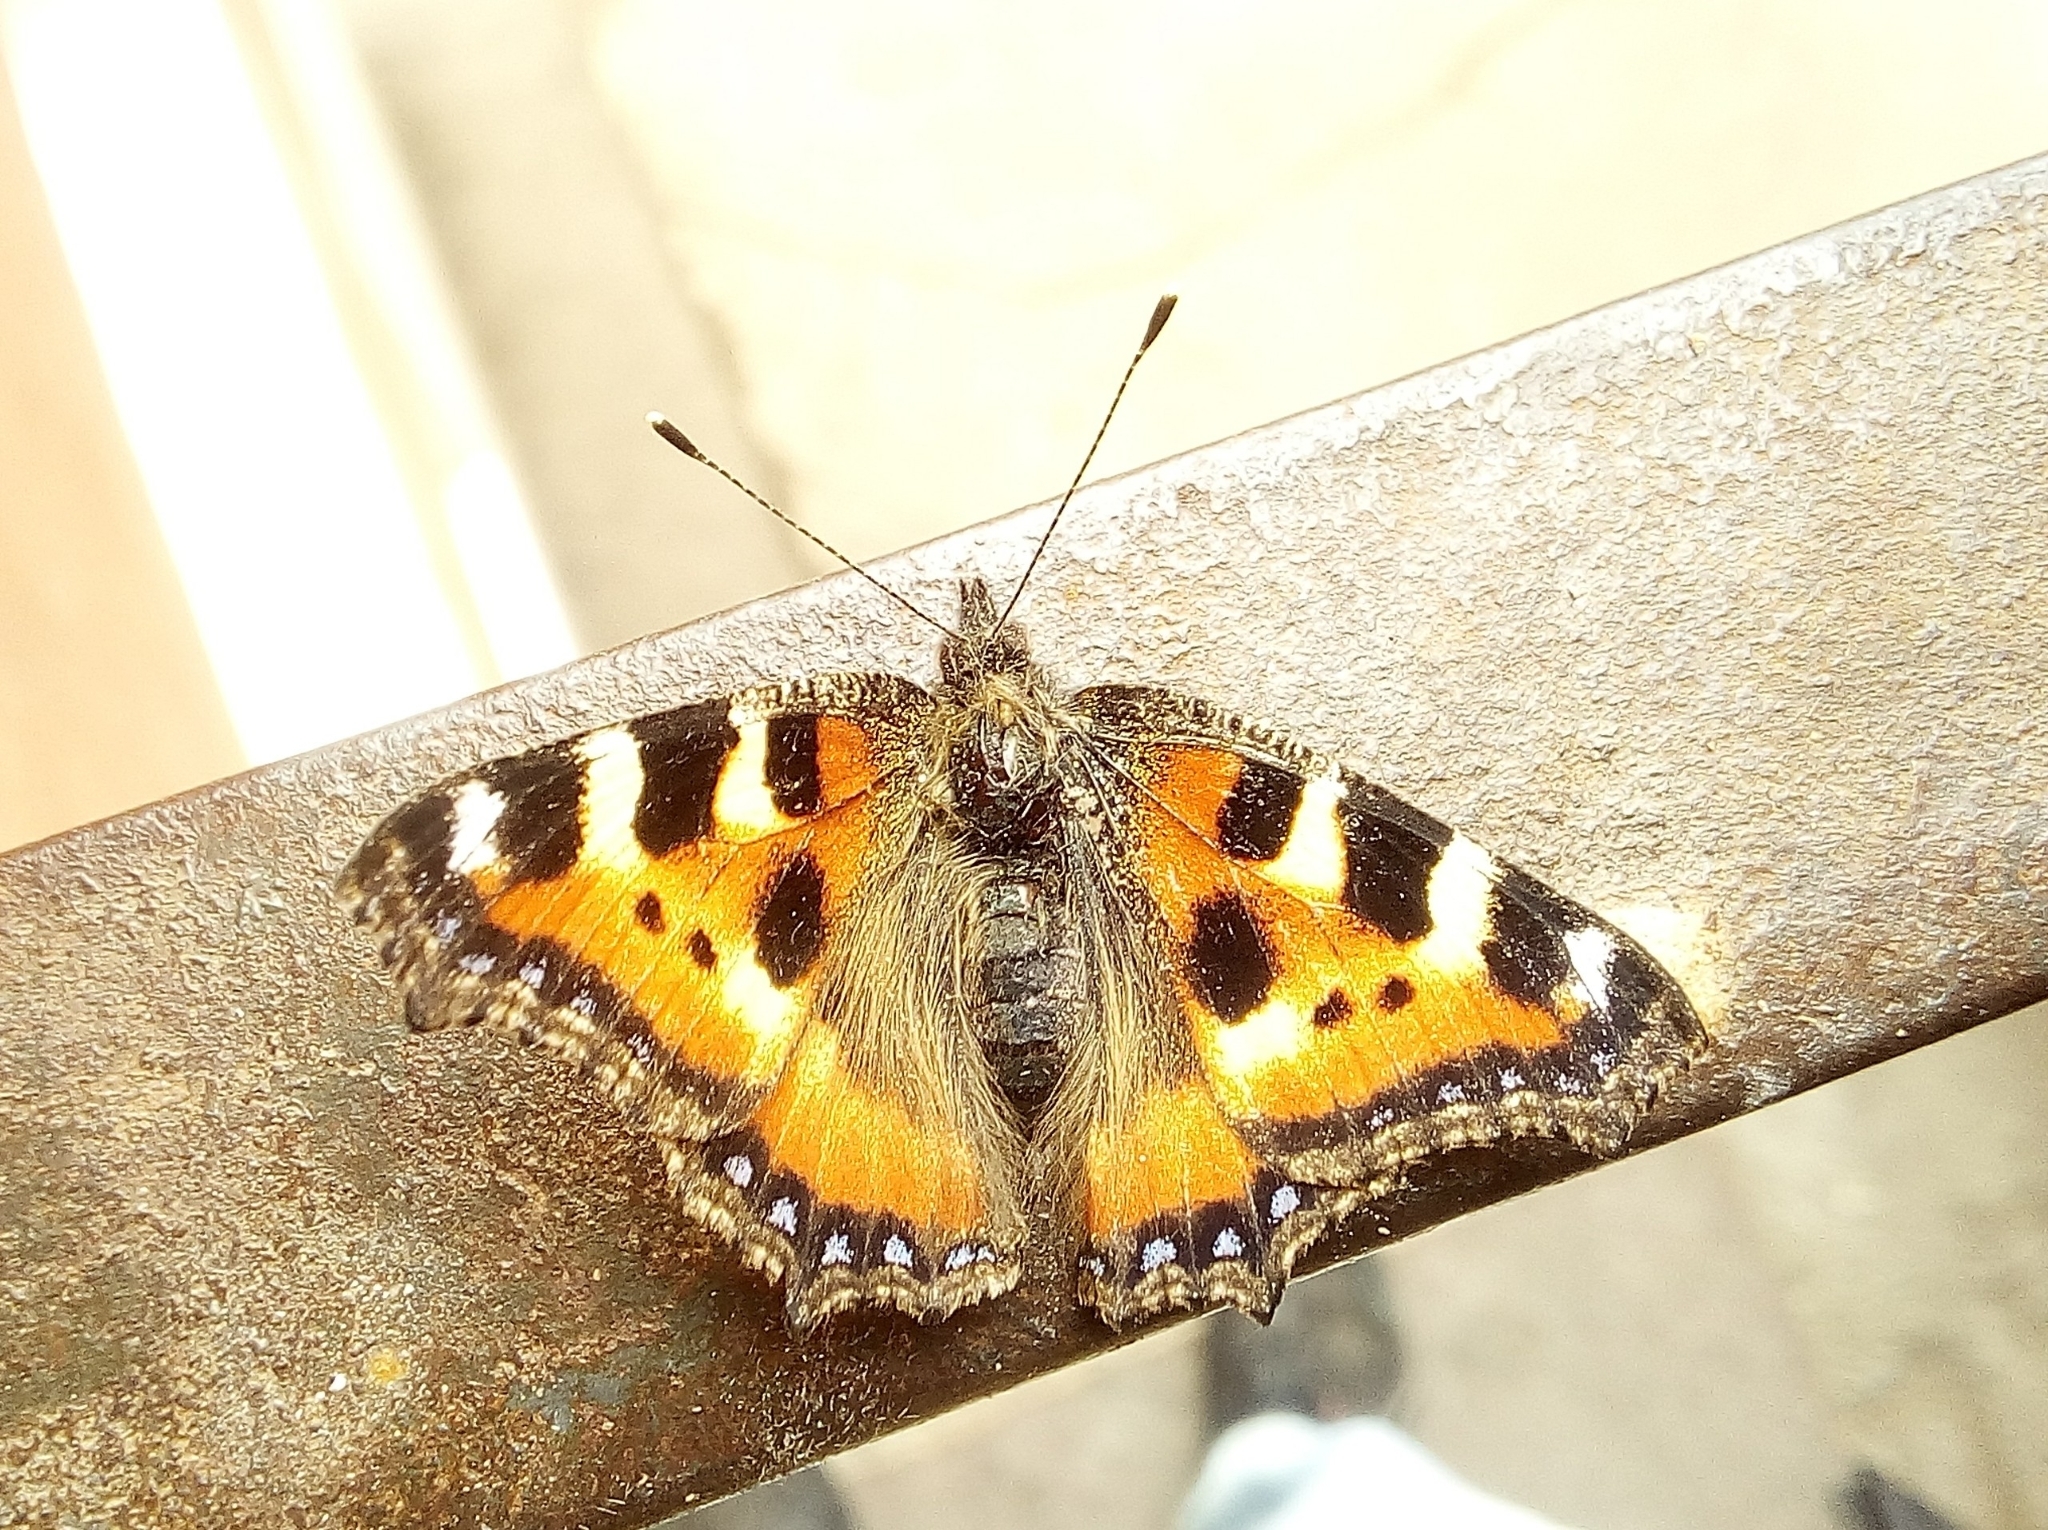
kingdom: Animalia
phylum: Arthropoda
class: Insecta
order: Lepidoptera
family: Nymphalidae
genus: Aglais
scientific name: Aglais urticae
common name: Small tortoiseshell
